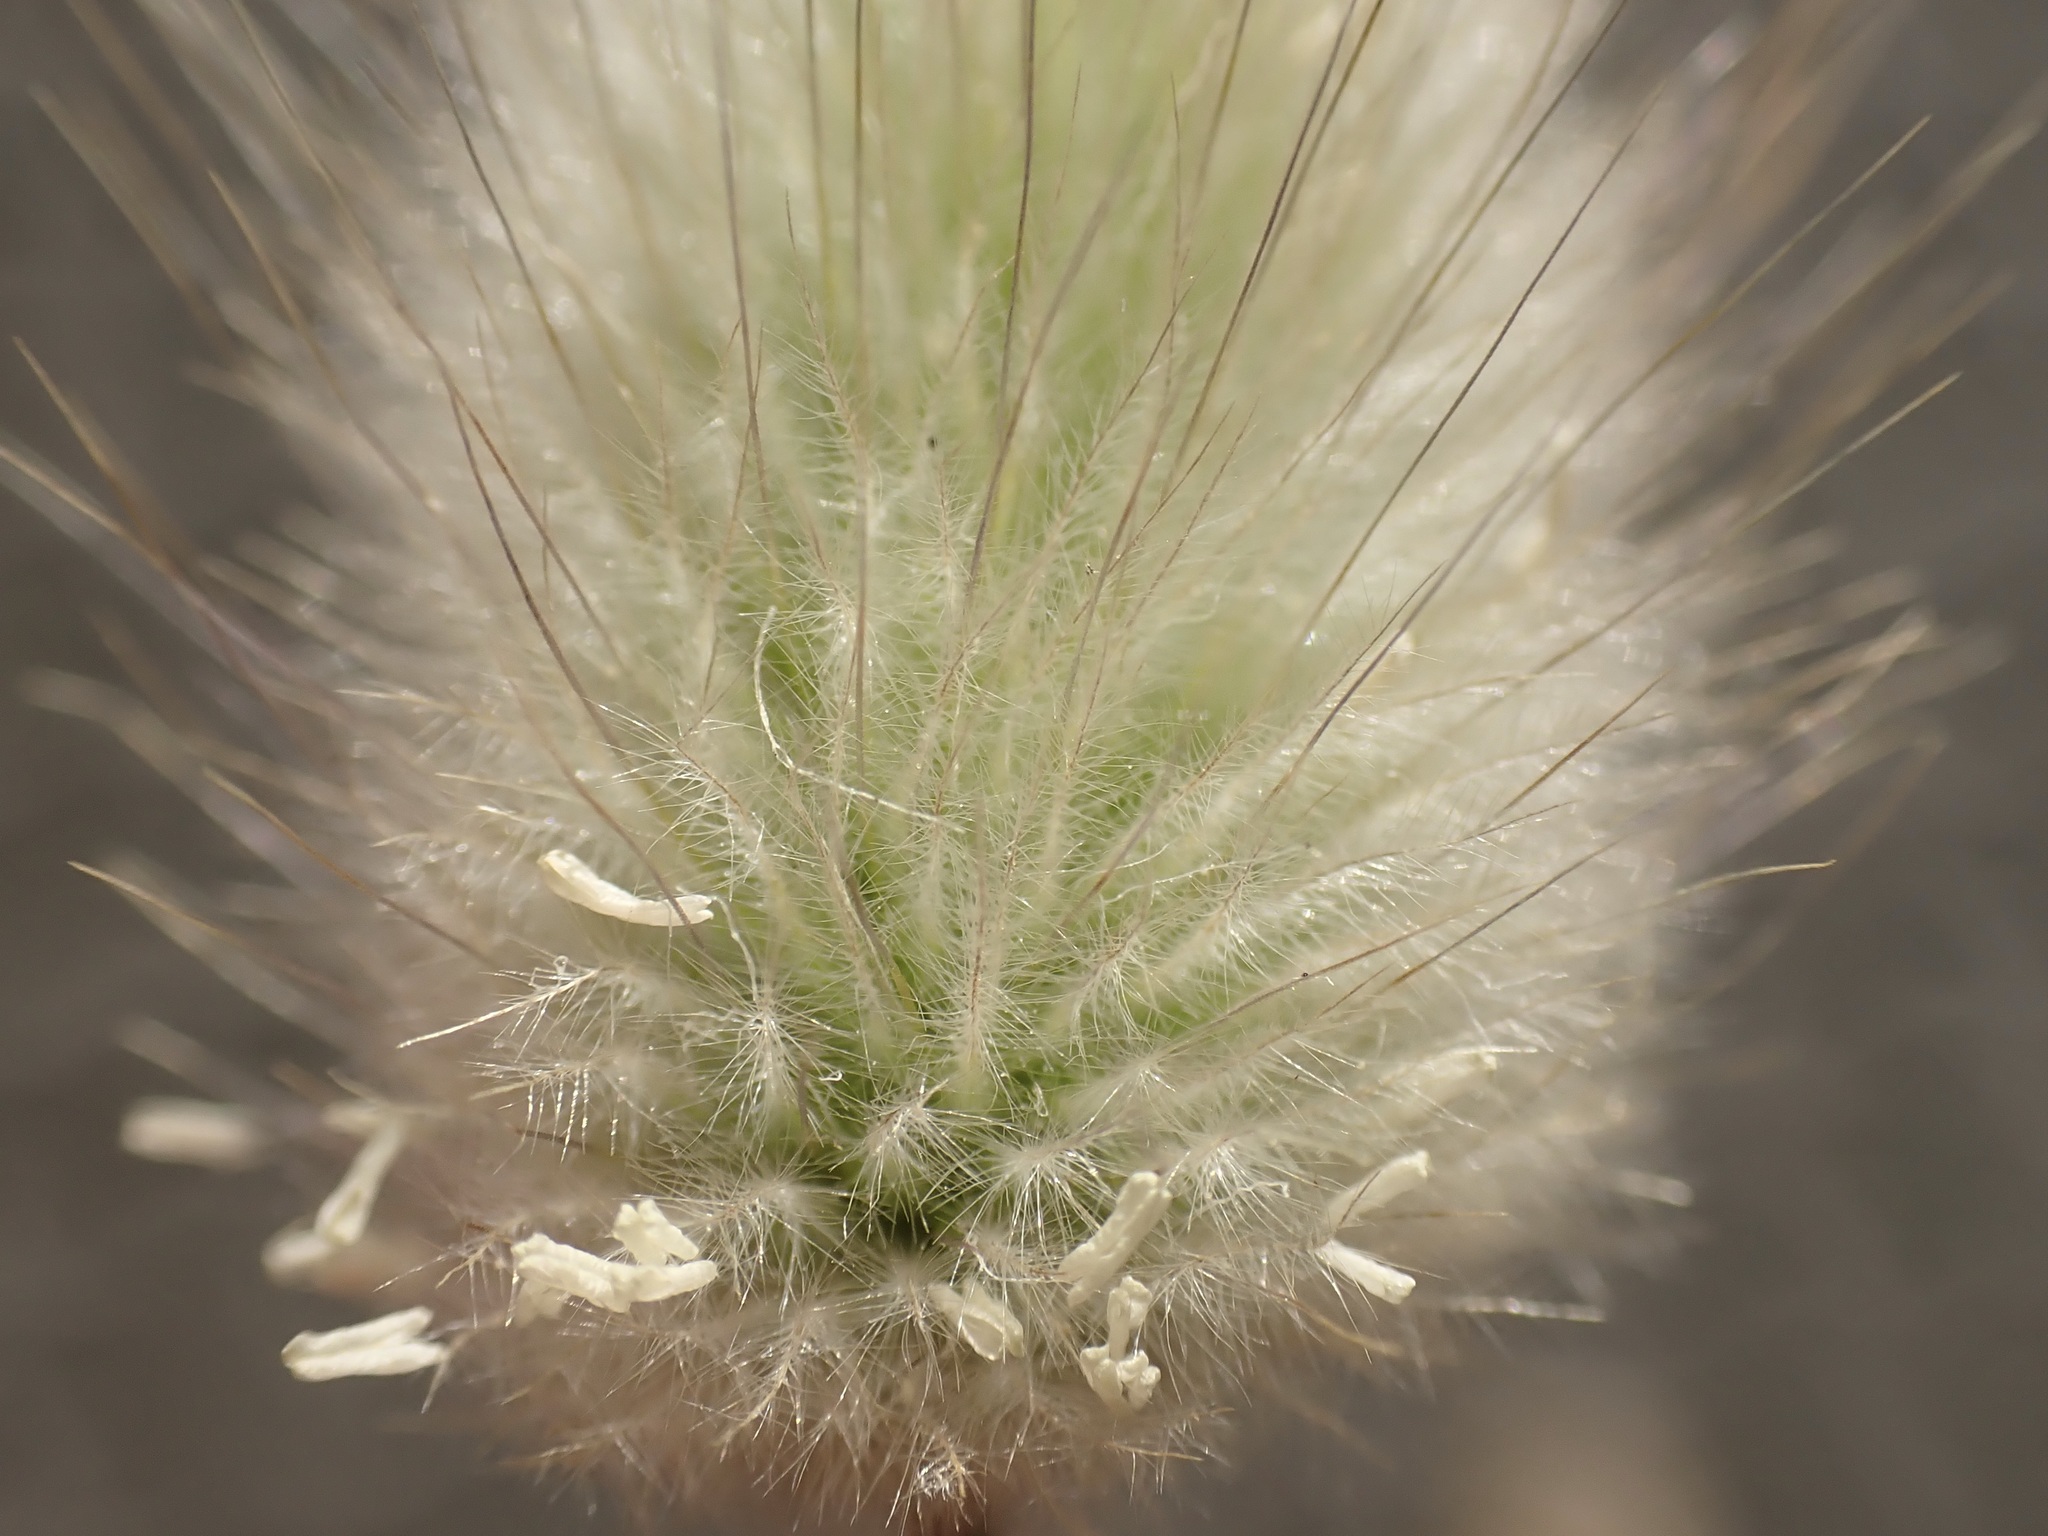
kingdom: Plantae
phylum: Tracheophyta
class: Liliopsida
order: Poales
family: Poaceae
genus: Lagurus
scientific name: Lagurus ovatus
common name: Hare's-tail
